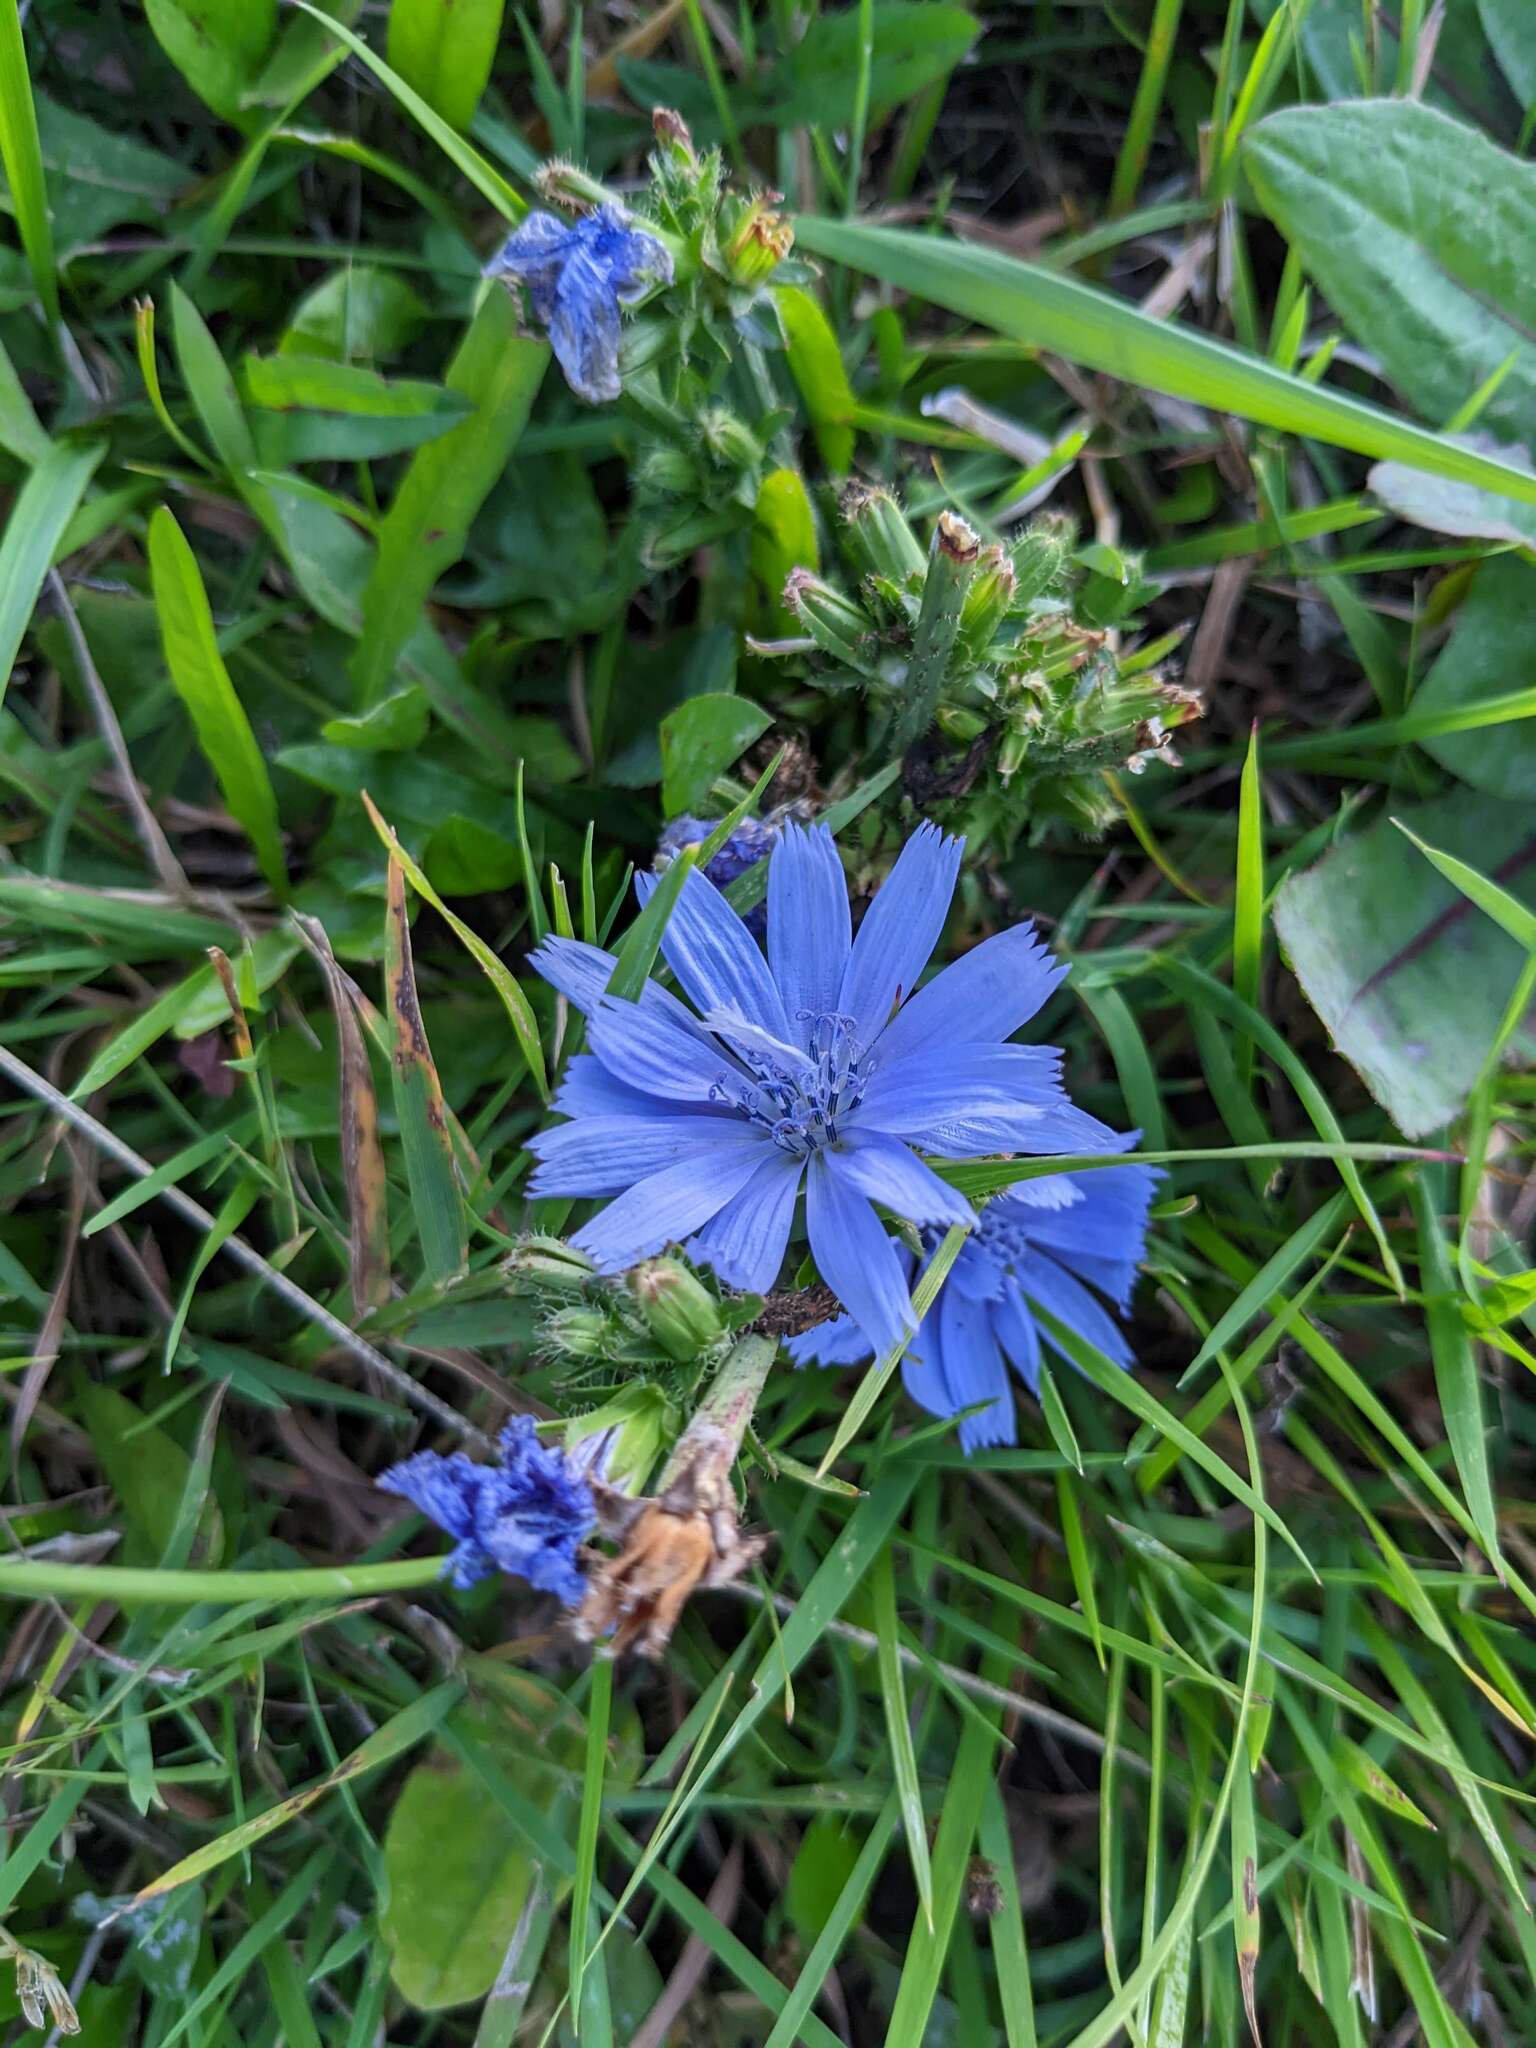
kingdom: Plantae
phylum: Tracheophyta
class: Magnoliopsida
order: Asterales
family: Asteraceae
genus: Cichorium
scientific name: Cichorium intybus
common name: Chicory
